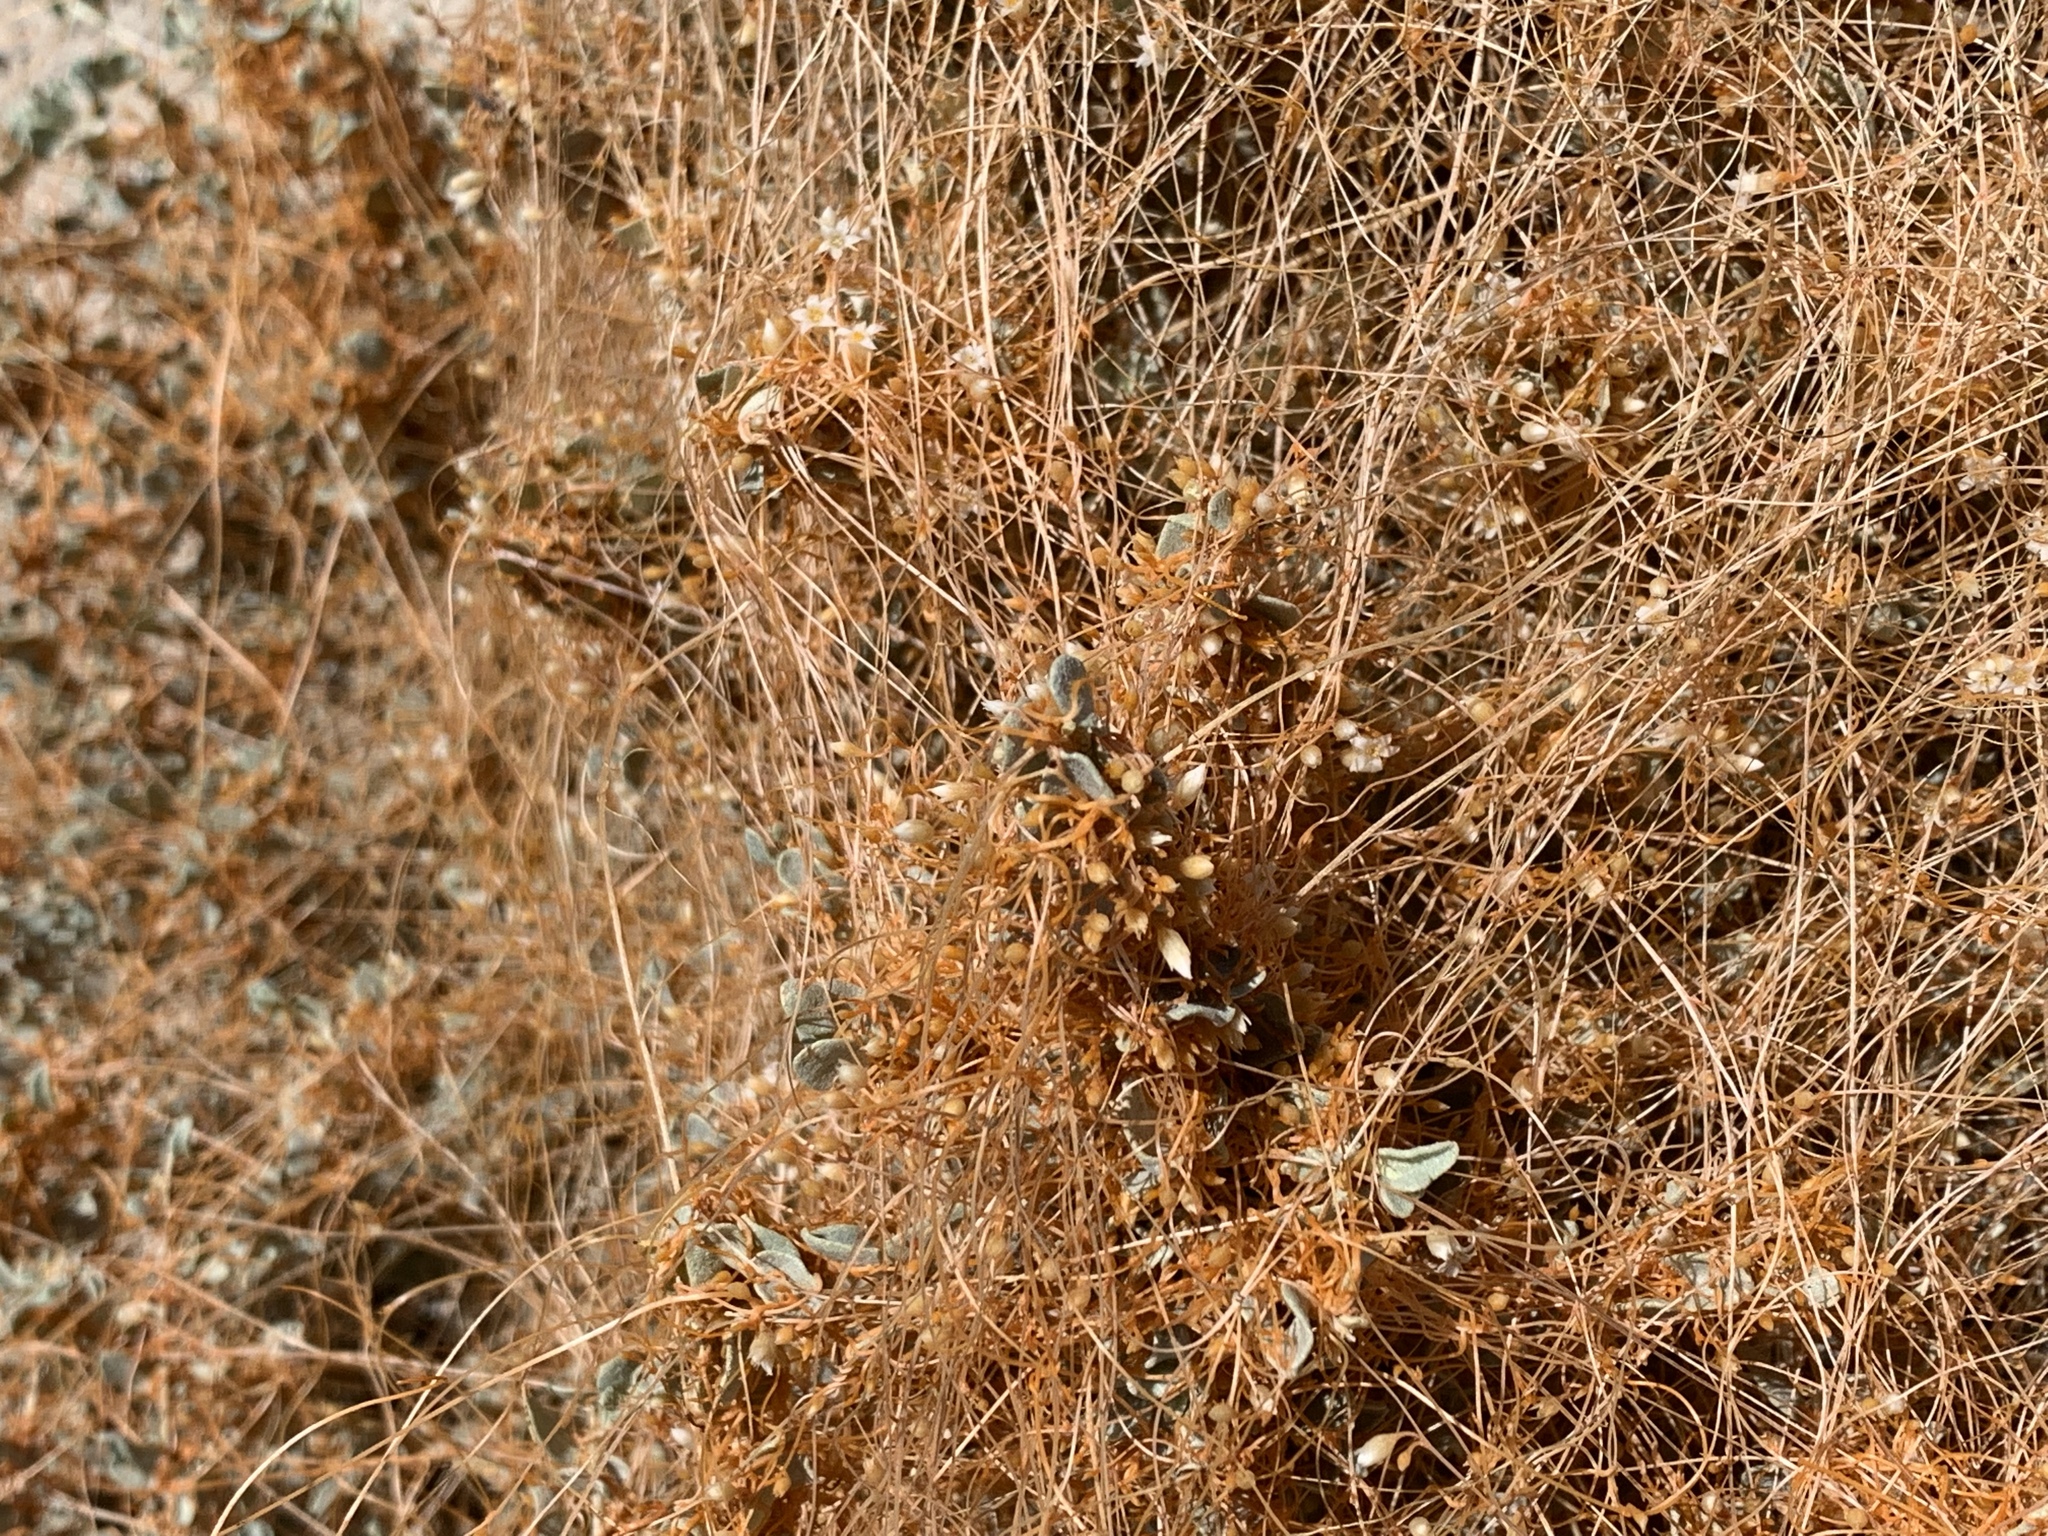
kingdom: Plantae
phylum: Tracheophyta
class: Magnoliopsida
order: Solanales
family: Convolvulaceae
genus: Cuscuta
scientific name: Cuscuta denticulata
